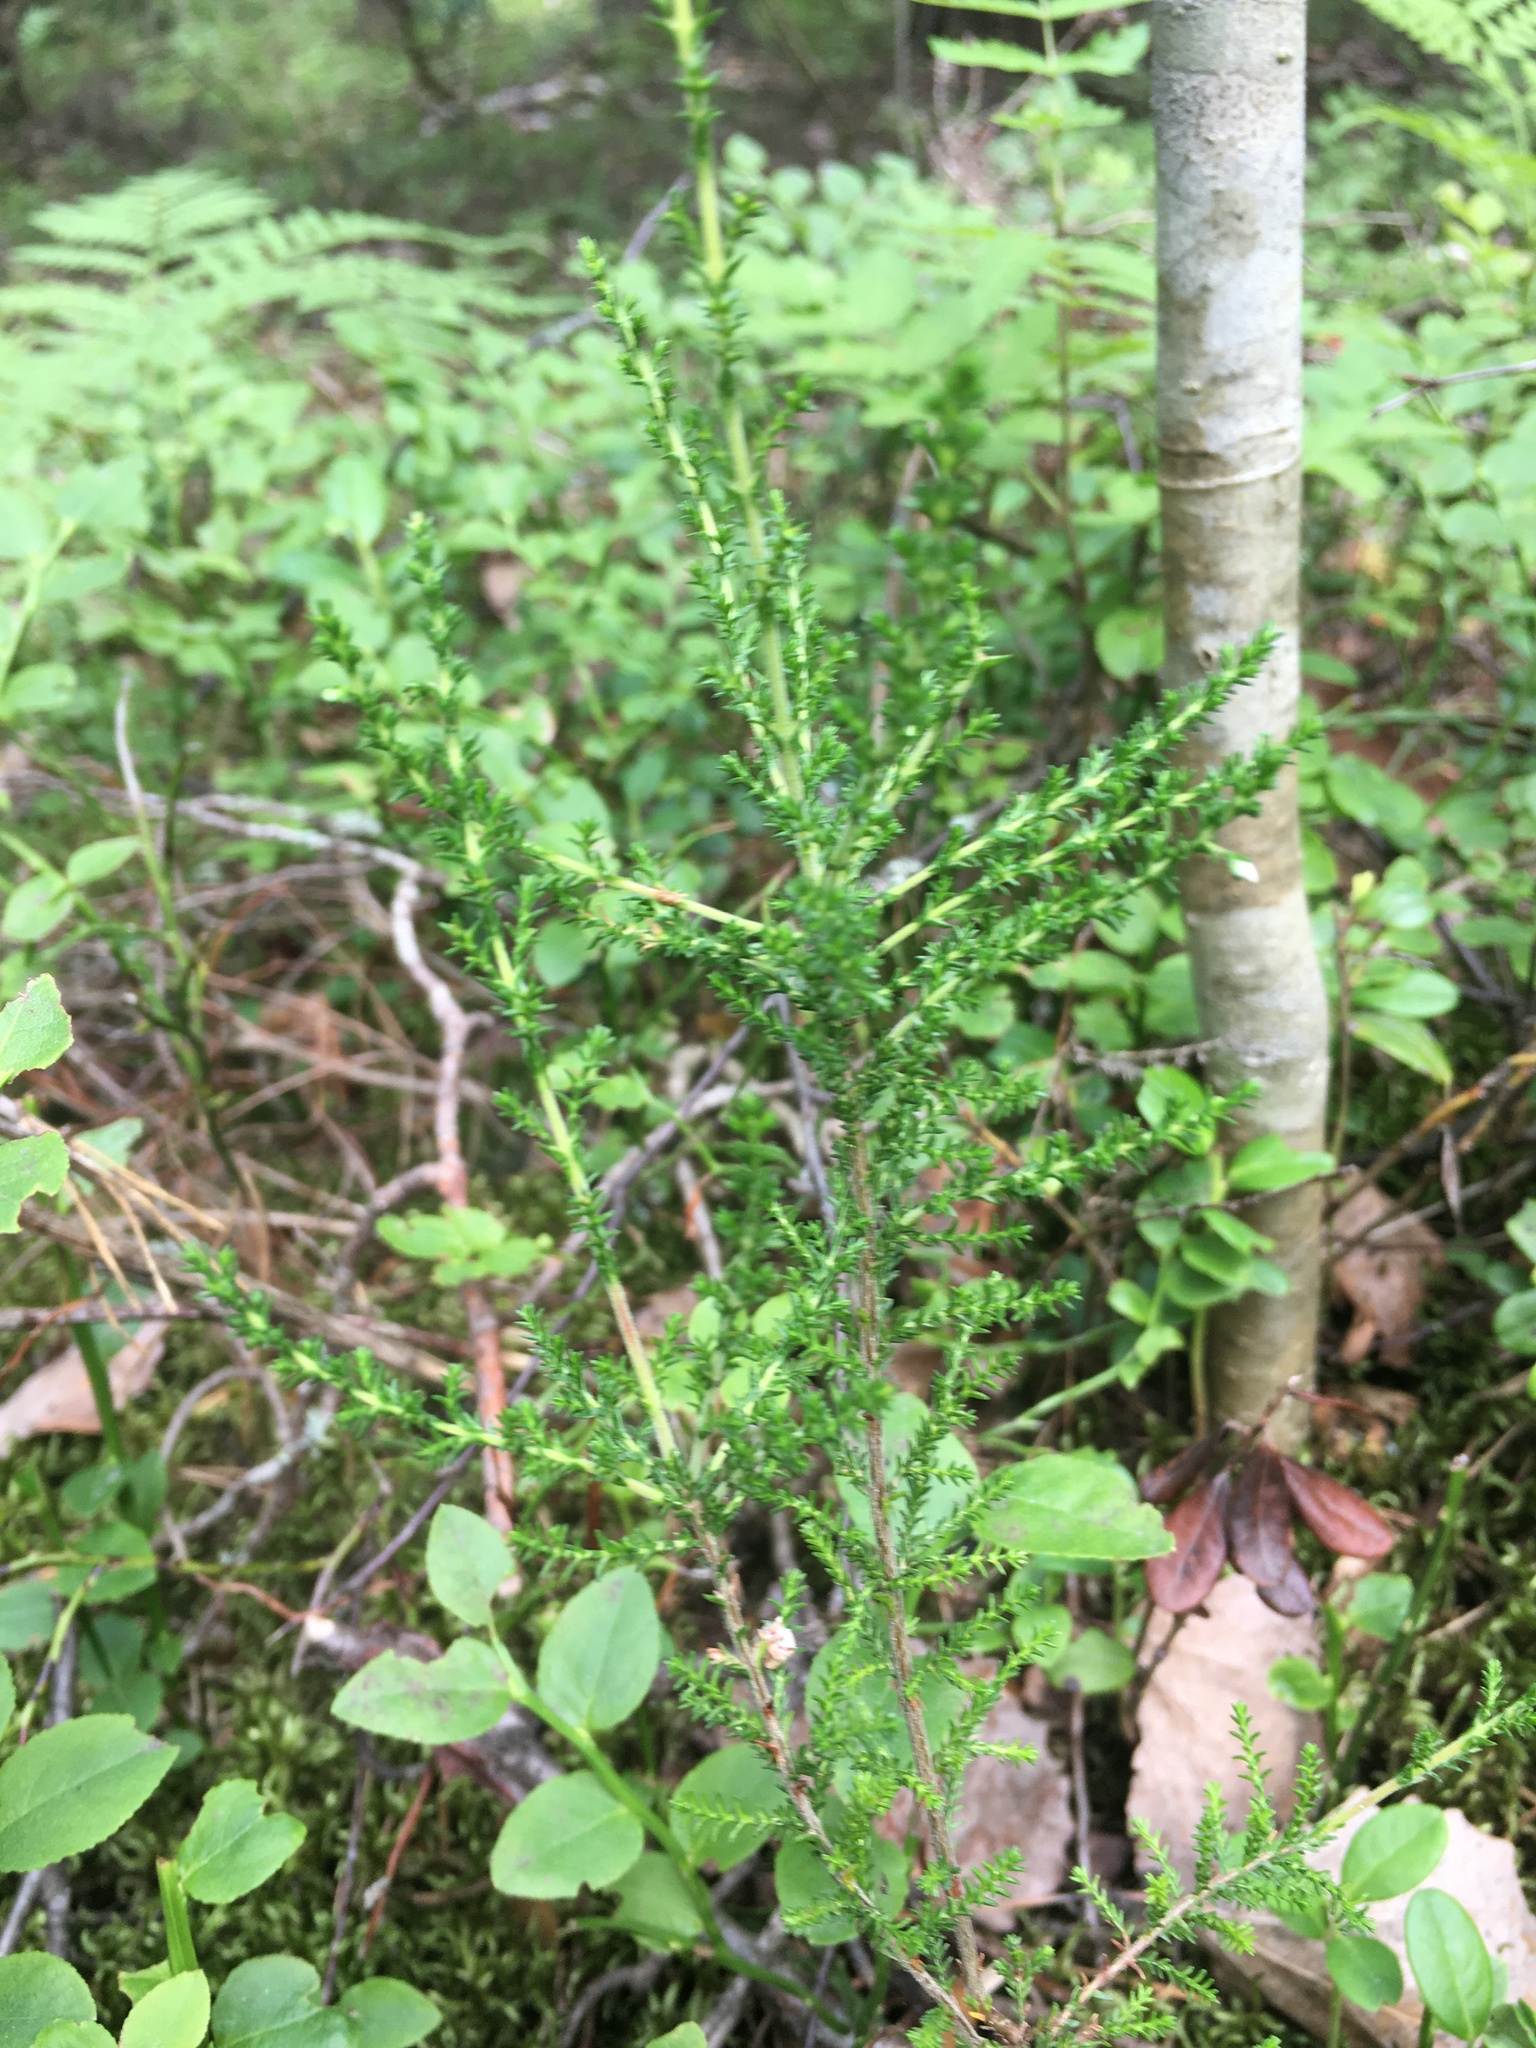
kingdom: Plantae
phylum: Tracheophyta
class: Magnoliopsida
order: Ericales
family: Ericaceae
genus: Calluna
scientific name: Calluna vulgaris
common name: Heather
